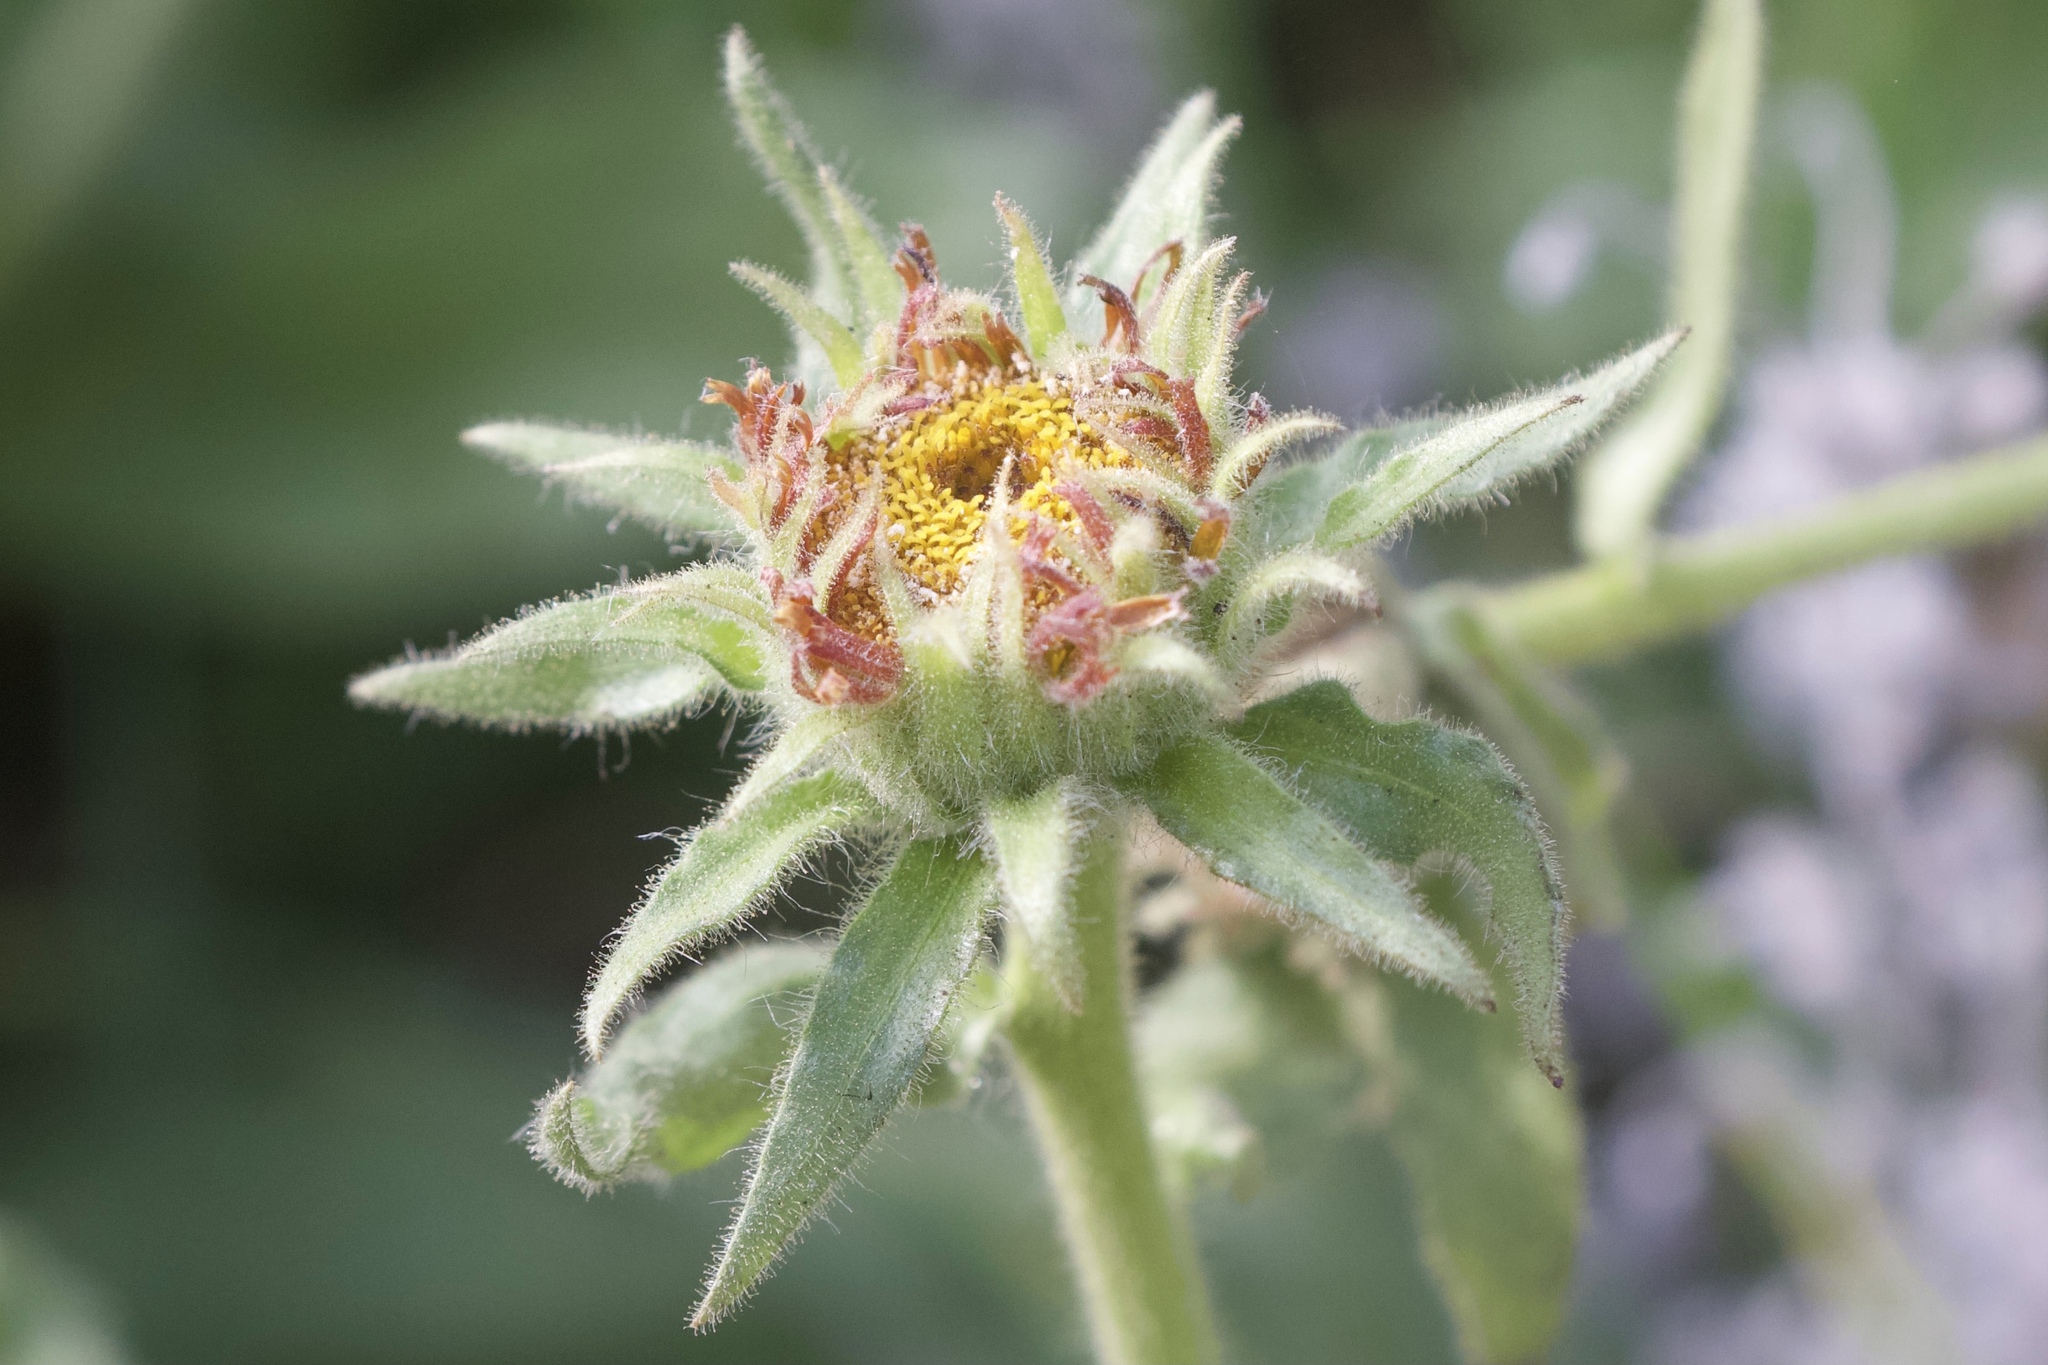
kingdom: Plantae
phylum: Tracheophyta
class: Magnoliopsida
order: Asterales
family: Asteraceae
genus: Hulsea
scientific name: Hulsea heterochroma
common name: Redray alpinegold
